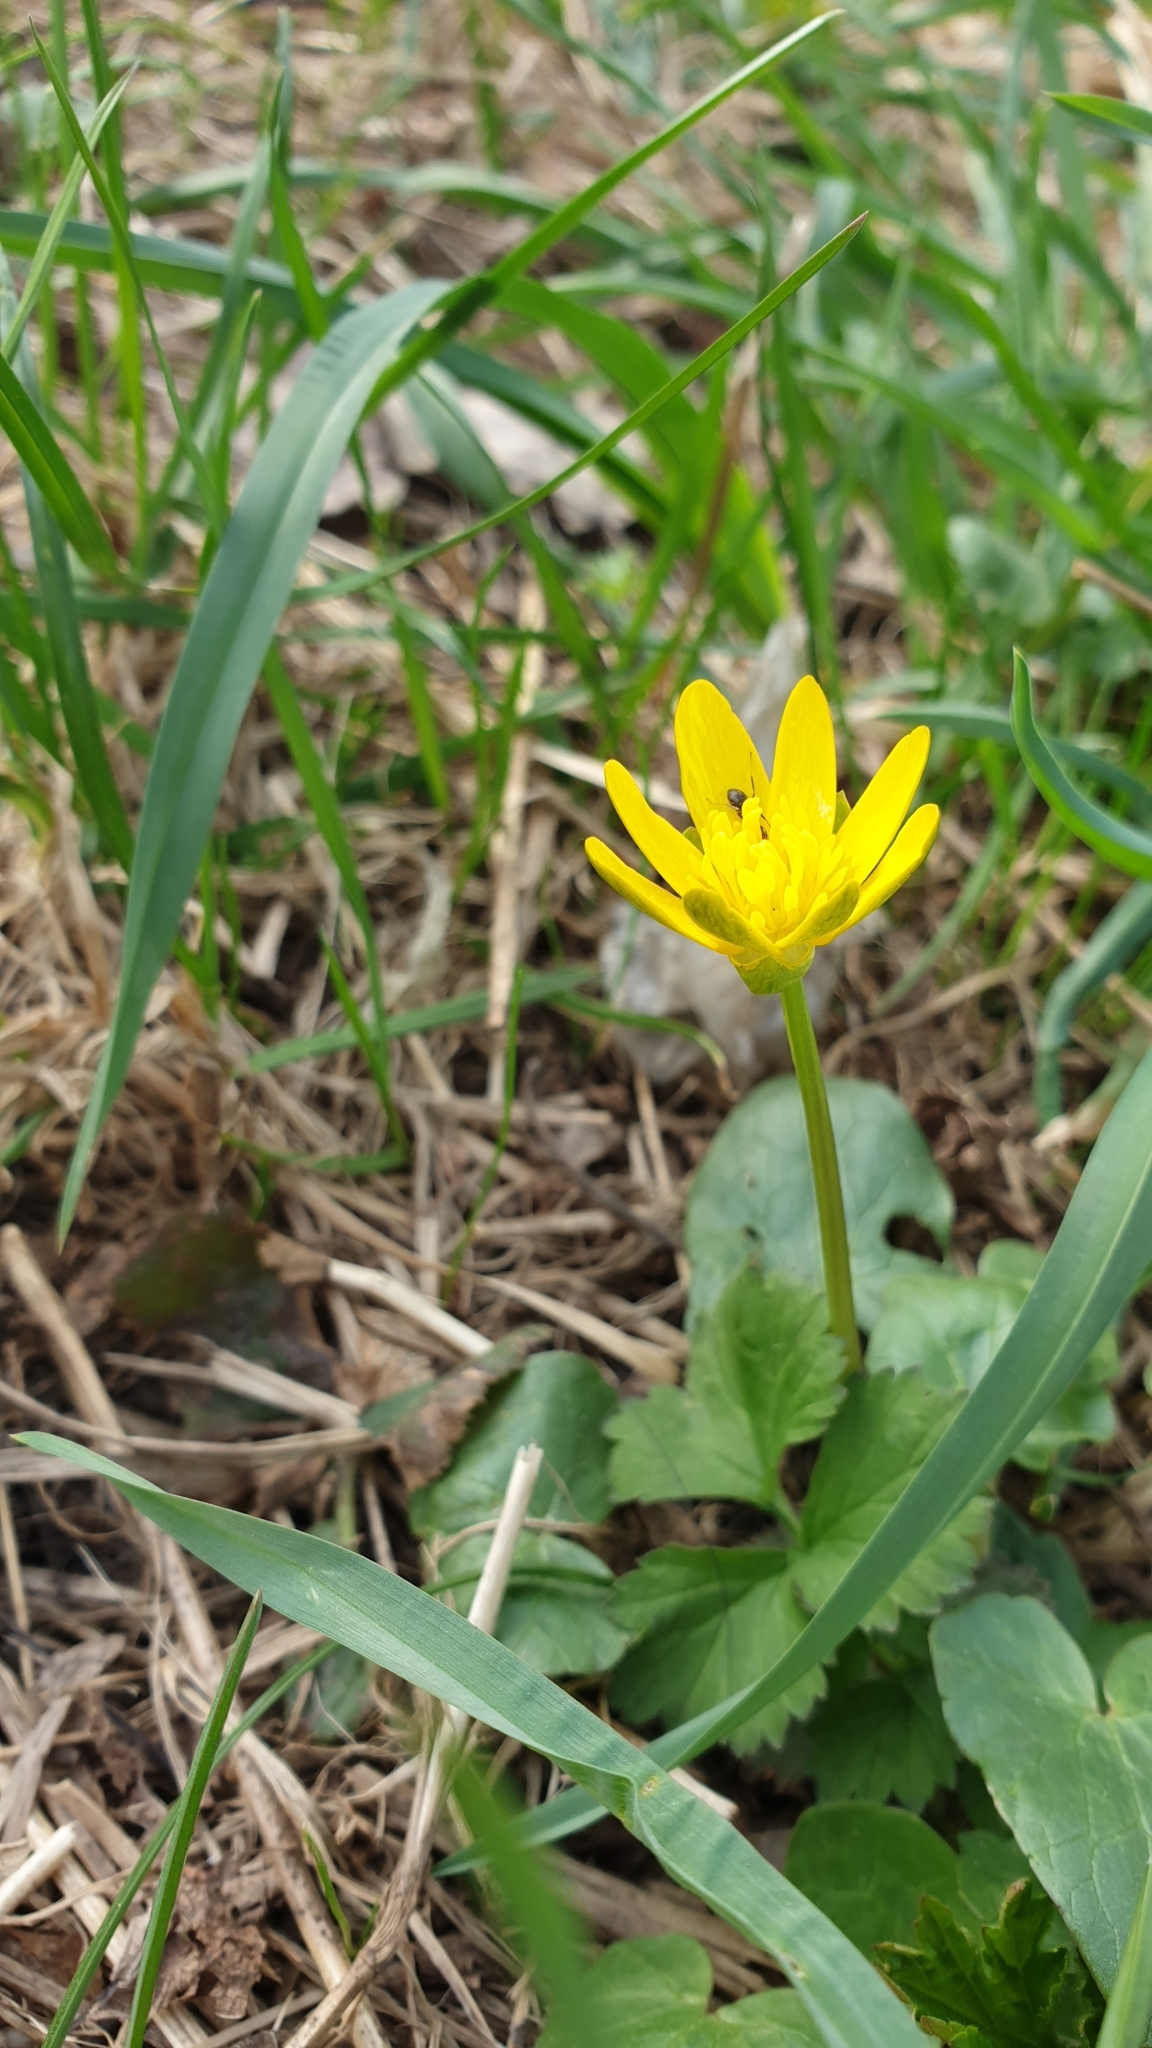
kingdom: Plantae
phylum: Tracheophyta
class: Magnoliopsida
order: Ranunculales
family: Ranunculaceae
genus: Ficaria
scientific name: Ficaria verna
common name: Lesser celandine
